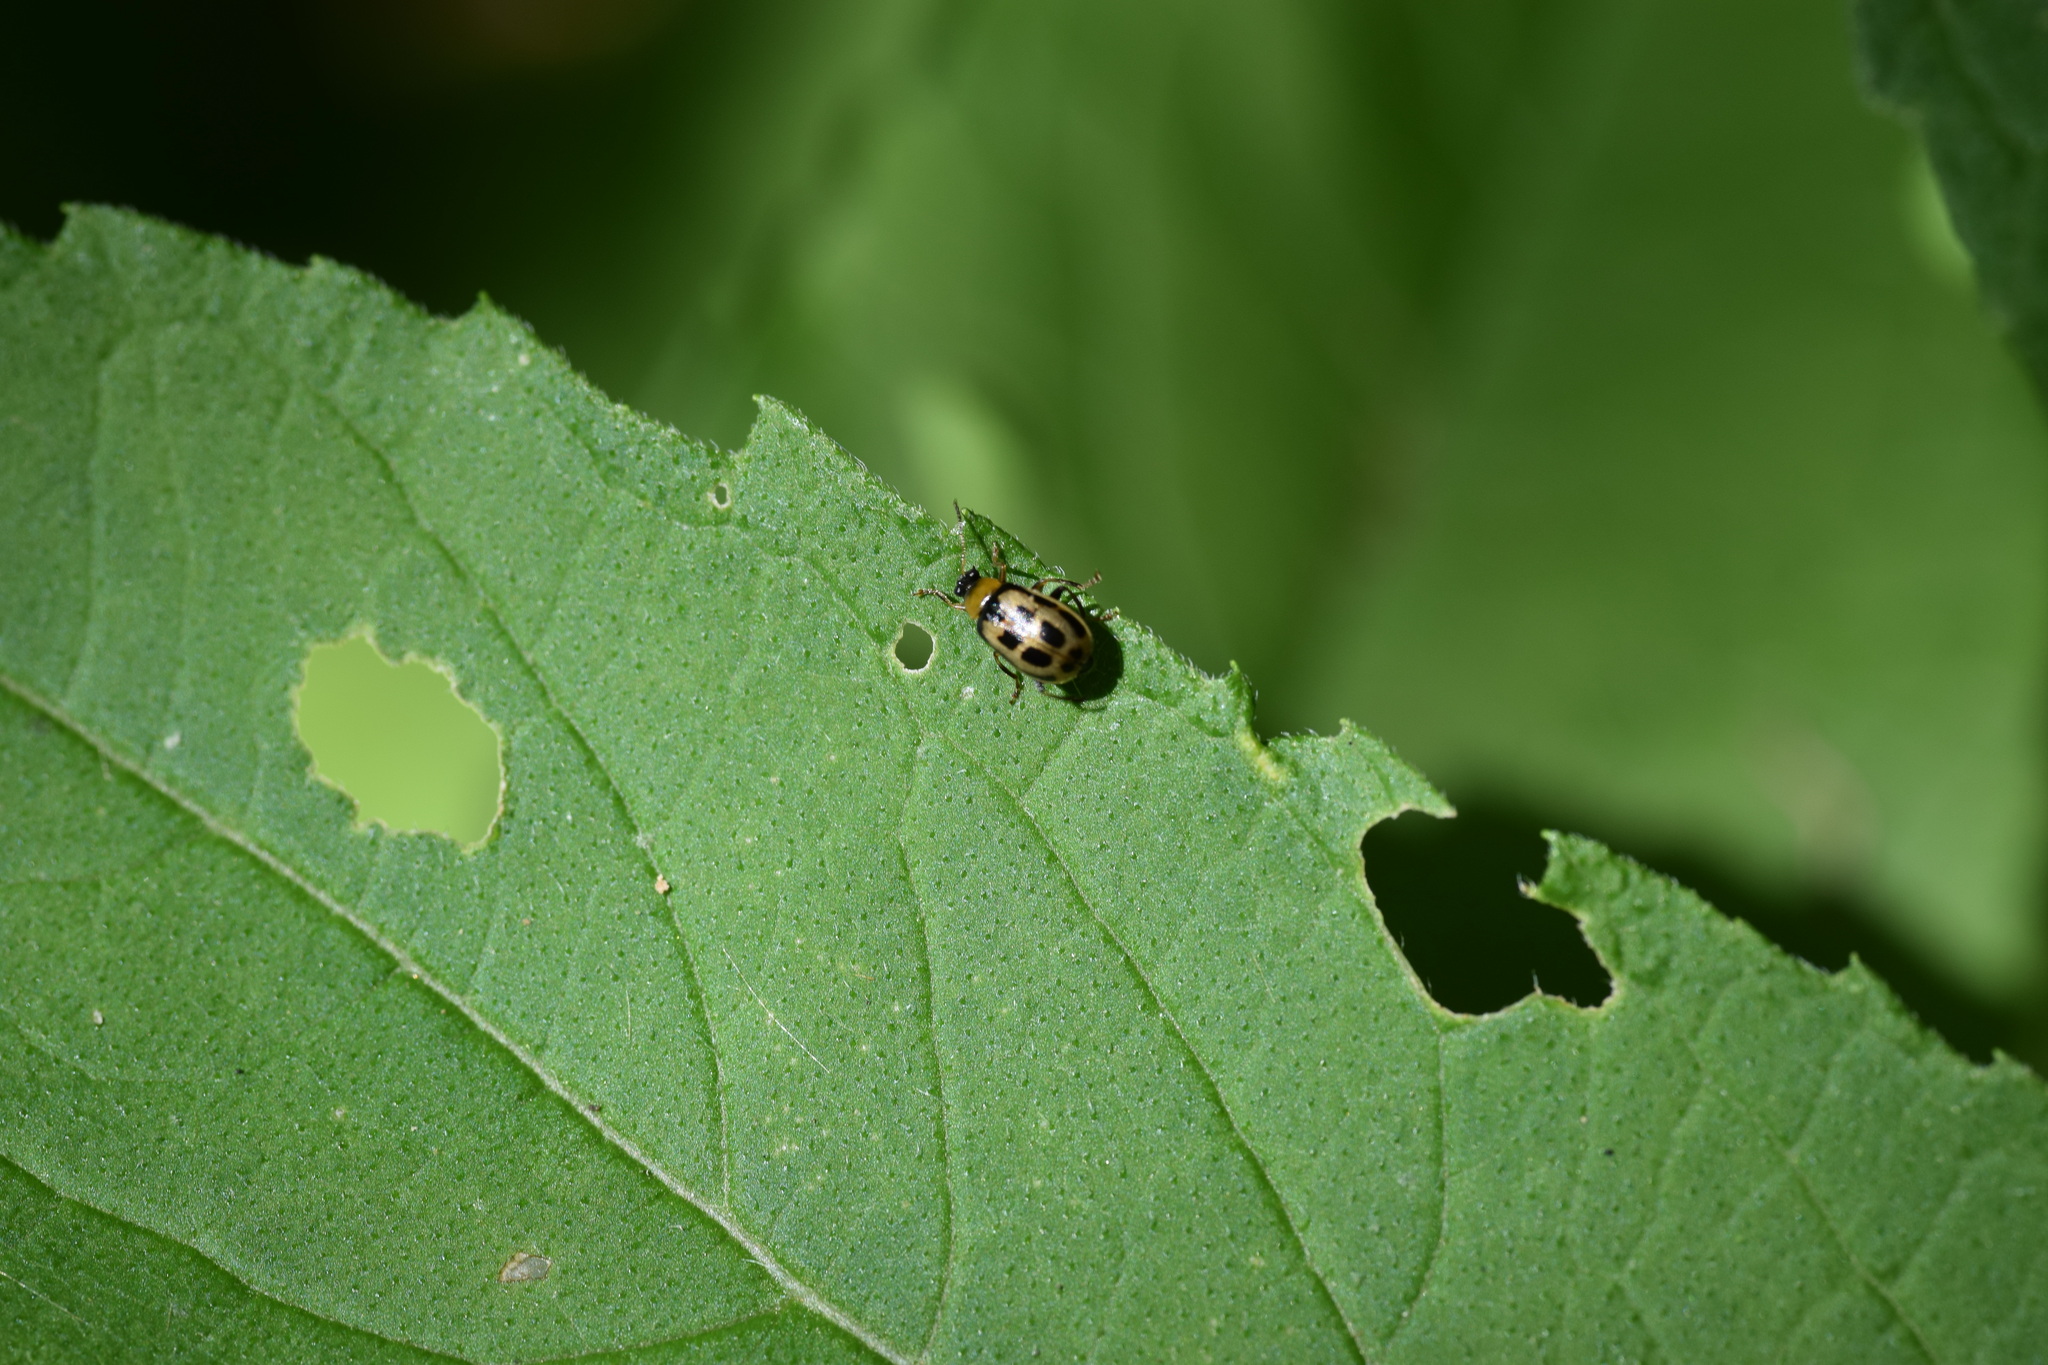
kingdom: Animalia
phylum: Arthropoda
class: Insecta
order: Coleoptera
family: Chrysomelidae
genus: Cerotoma
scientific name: Cerotoma trifurcata
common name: Bean leaf beetle
